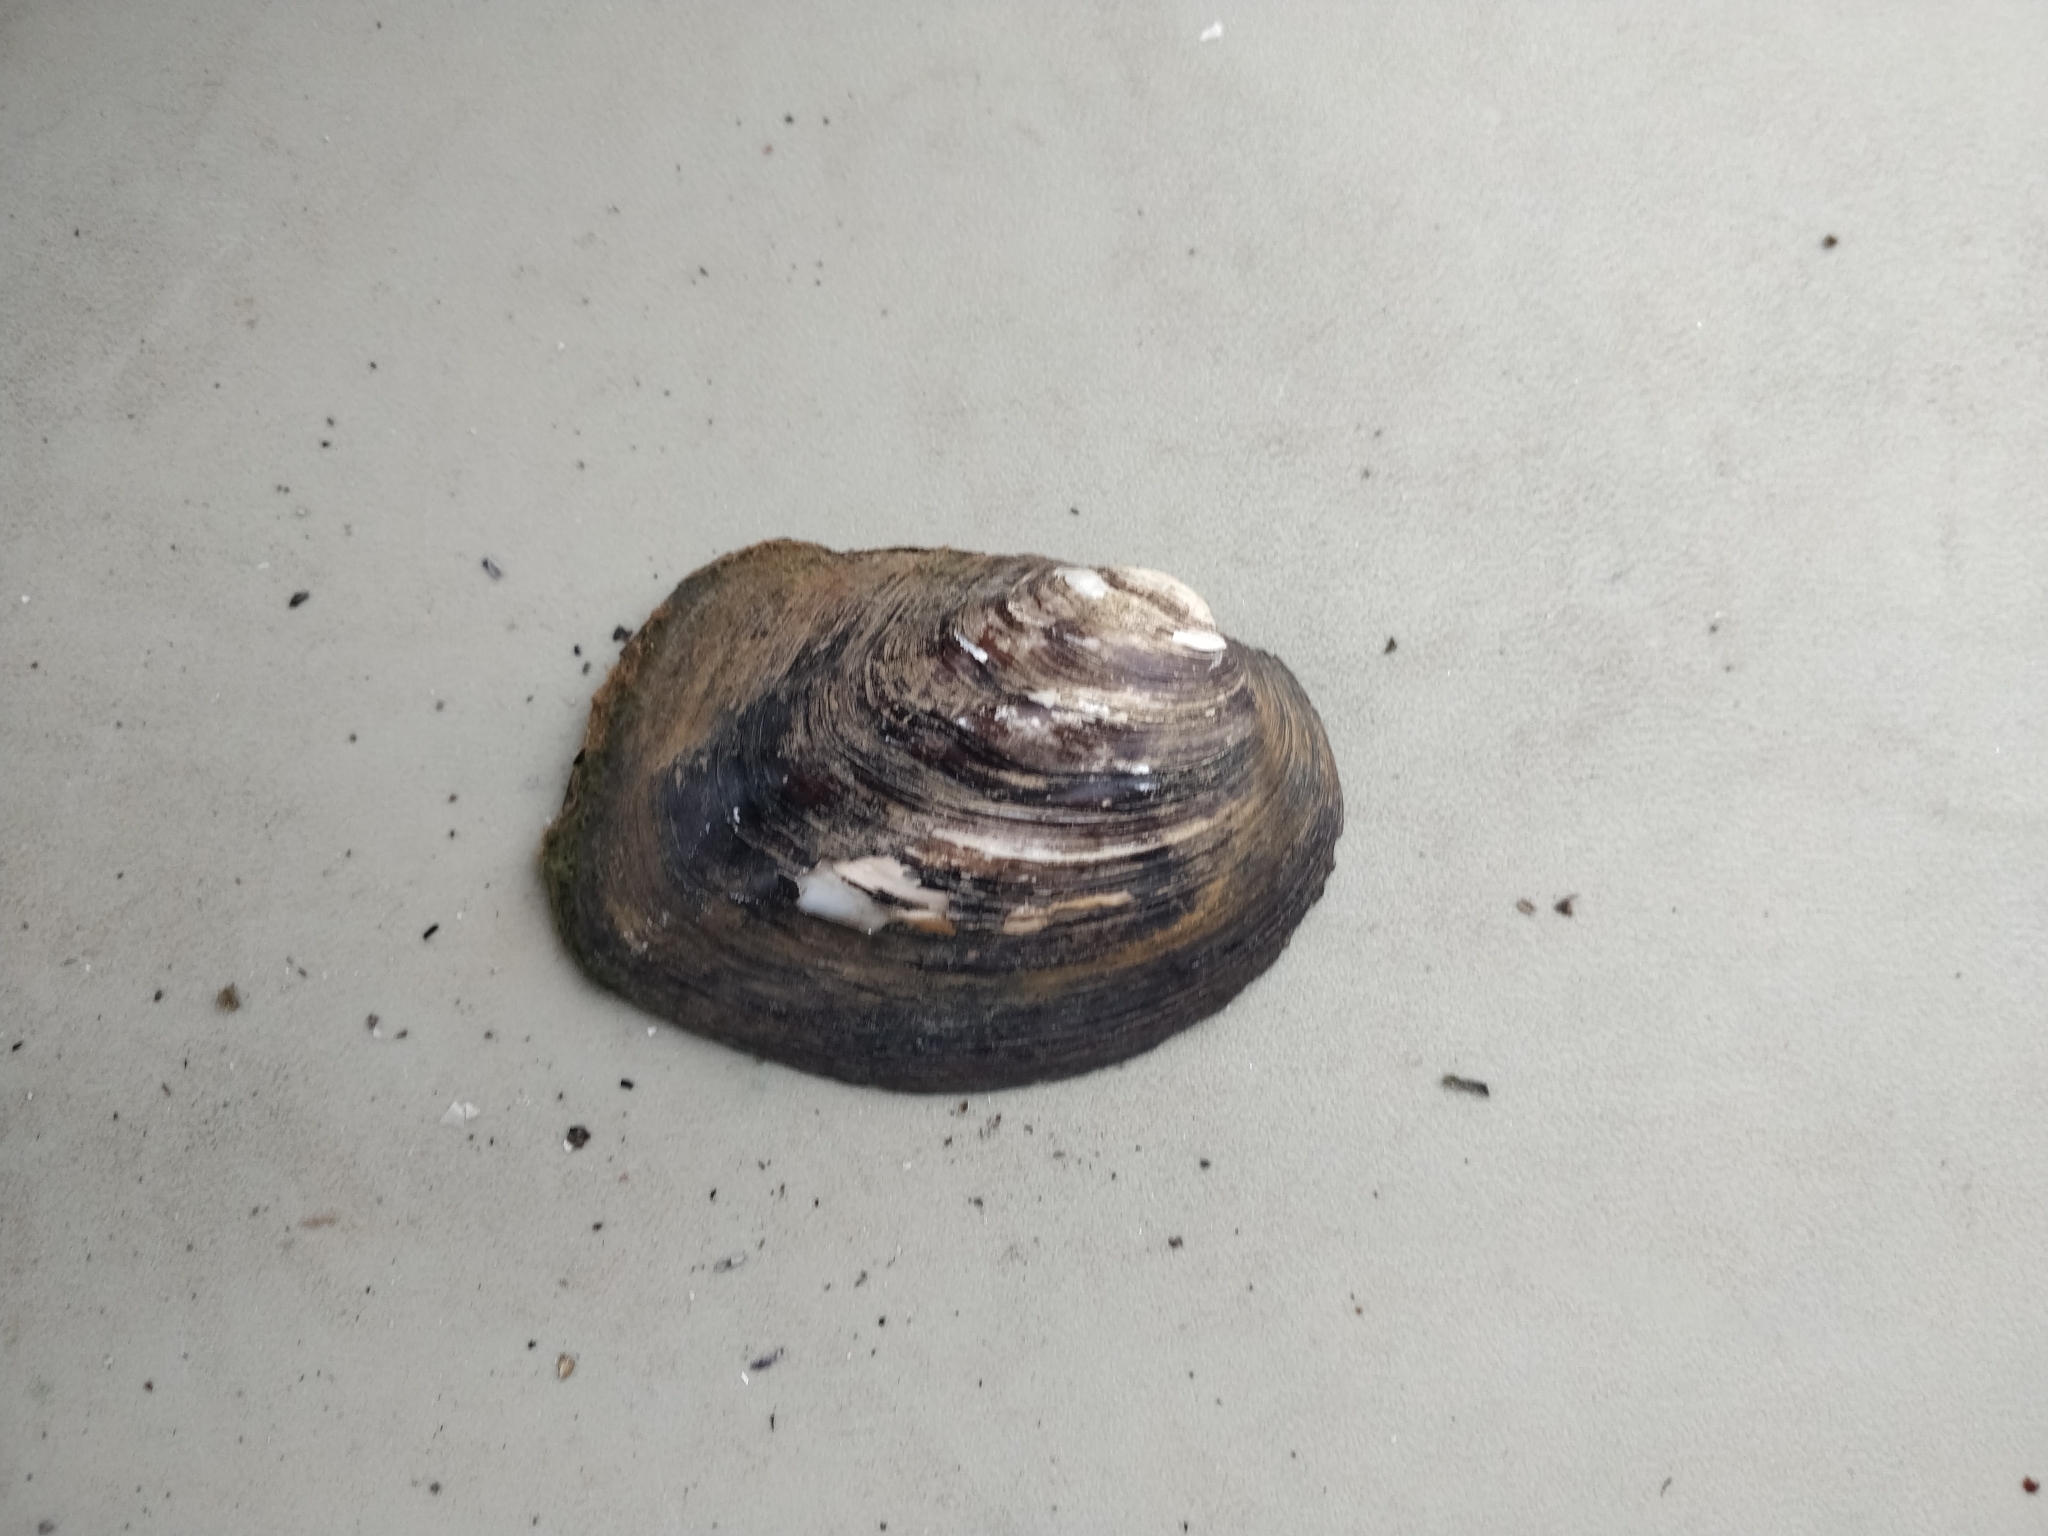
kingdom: Animalia
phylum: Mollusca
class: Bivalvia
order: Unionida
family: Unionidae
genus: Amblema
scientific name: Amblema plicata
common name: Threeridge
